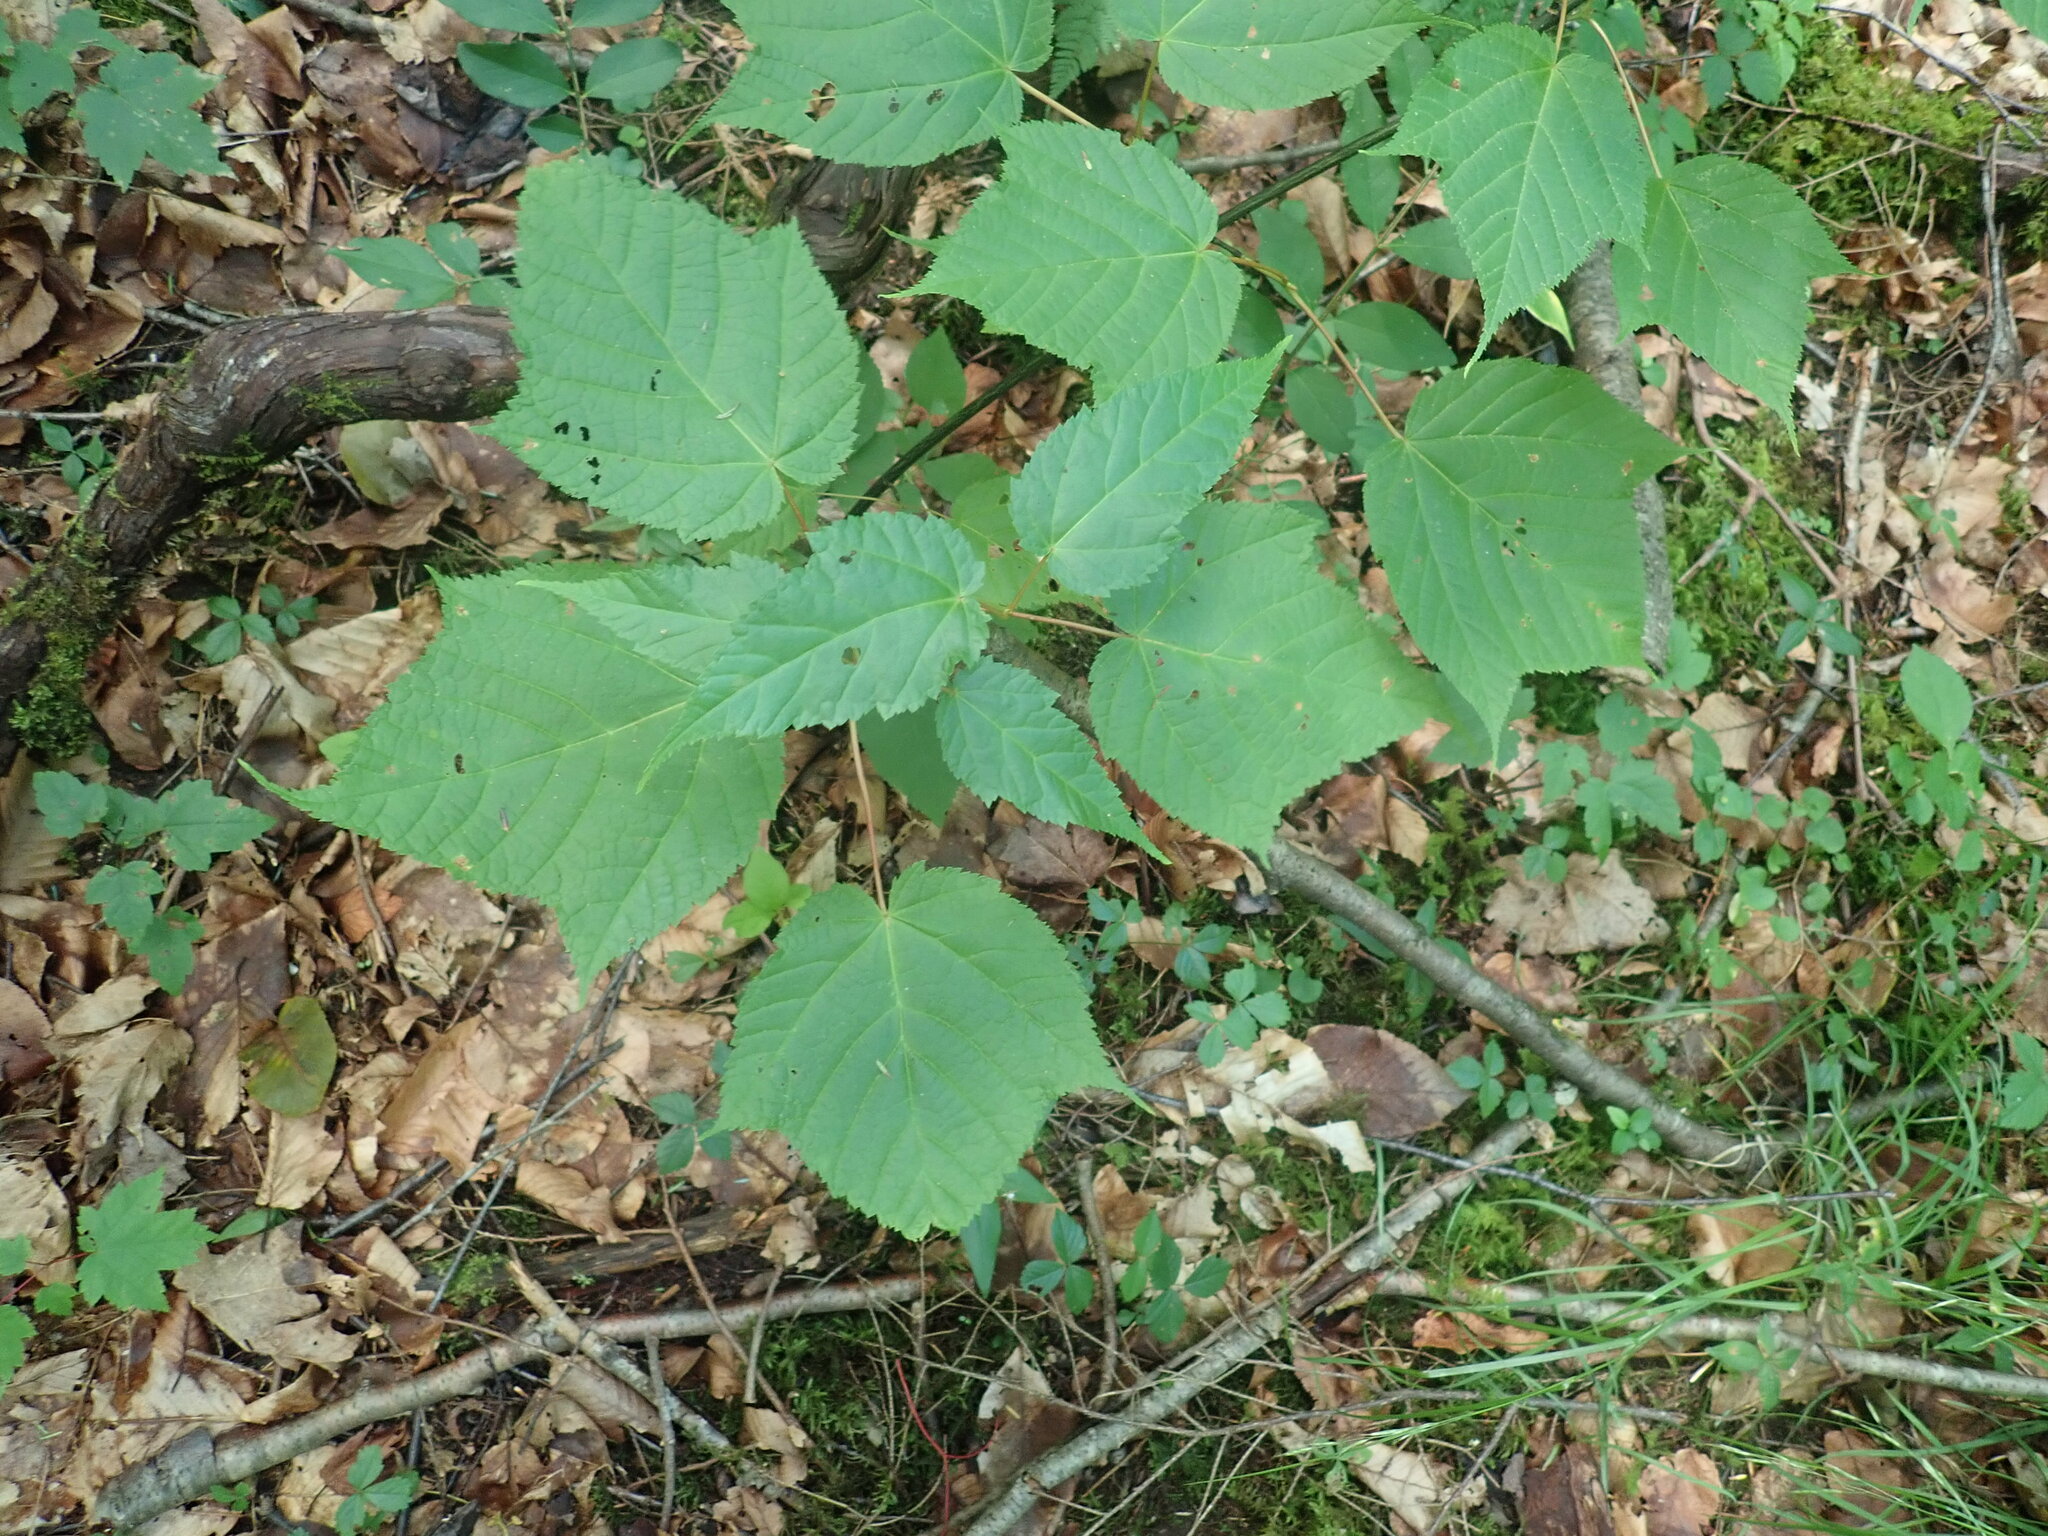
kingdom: Plantae
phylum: Tracheophyta
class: Magnoliopsida
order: Sapindales
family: Sapindaceae
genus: Acer
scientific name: Acer pensylvanicum
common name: Moosewood
